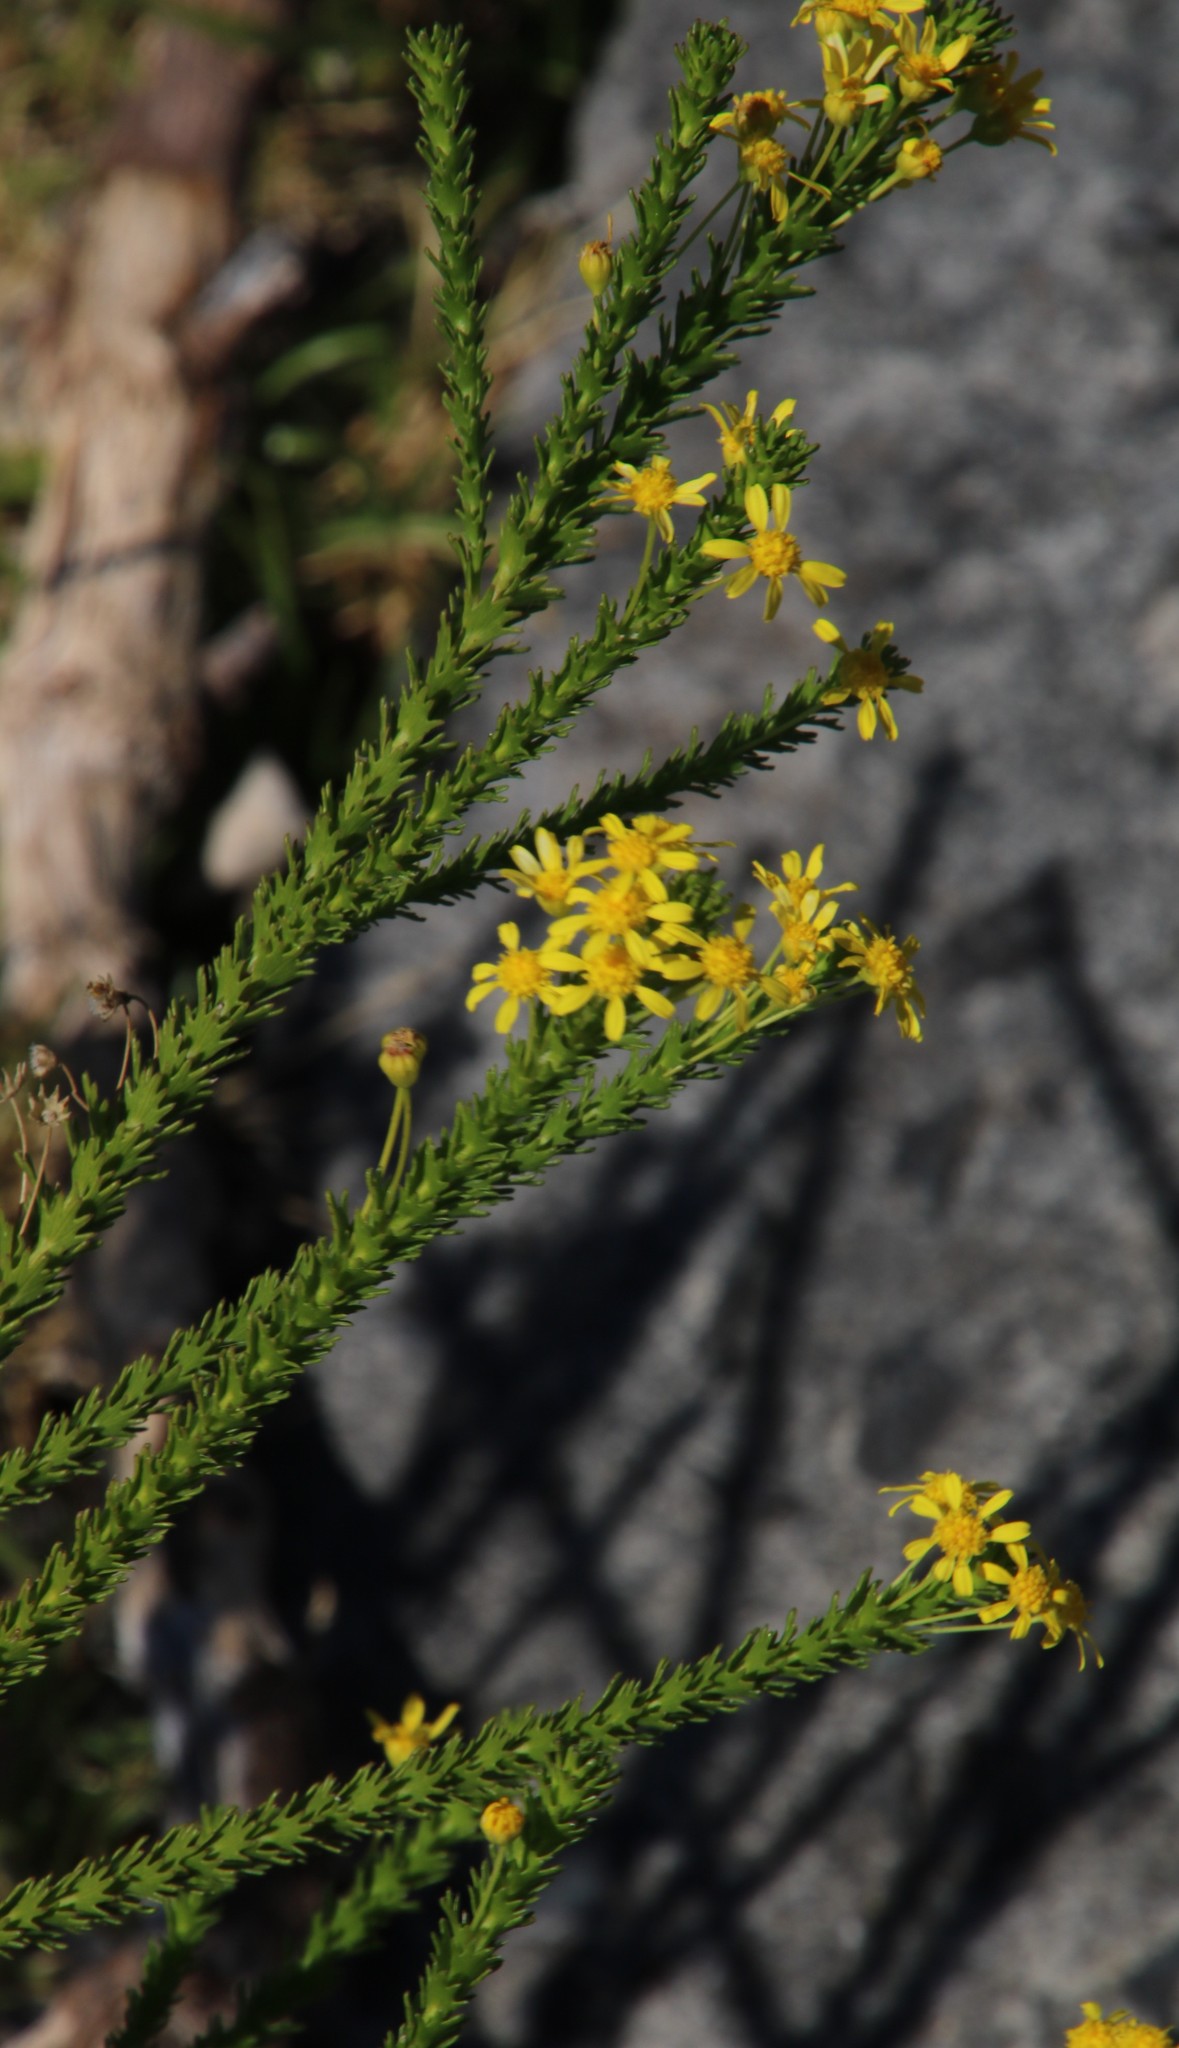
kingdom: Plantae
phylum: Tracheophyta
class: Magnoliopsida
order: Asterales
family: Asteraceae
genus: Euryops
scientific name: Euryops virgineus
